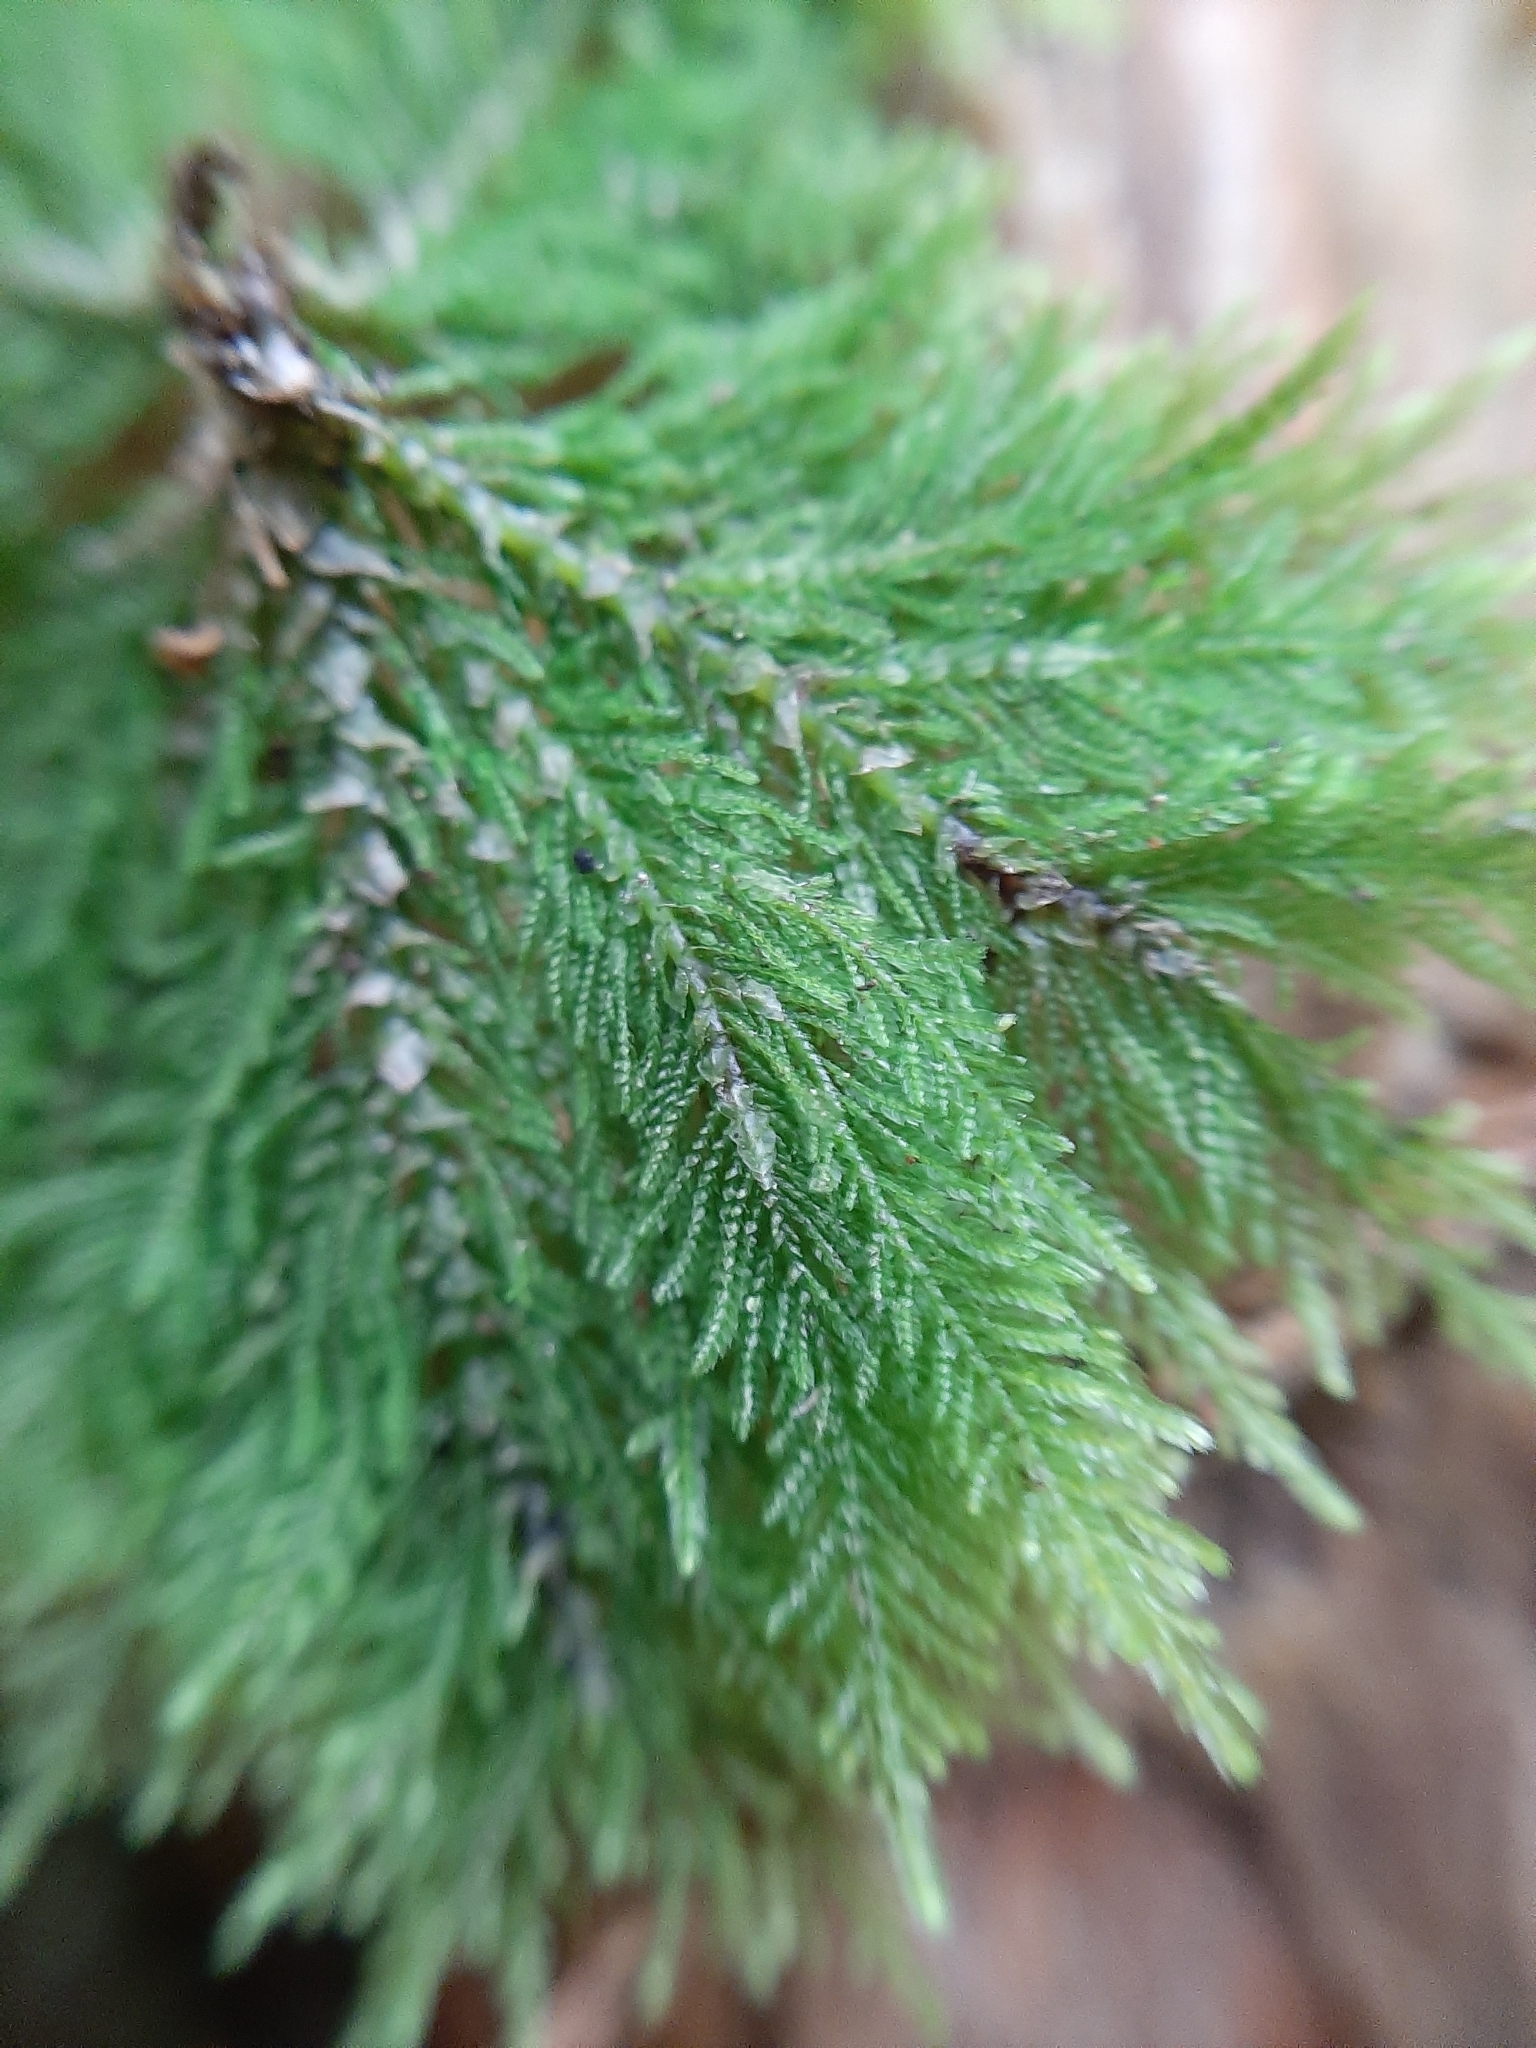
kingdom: Plantae
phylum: Bryophyta
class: Bryopsida
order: Hypopterygiales
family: Hypopterygiaceae
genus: Dendrohypopterygium
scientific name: Dendrohypopterygium filiculiforme
